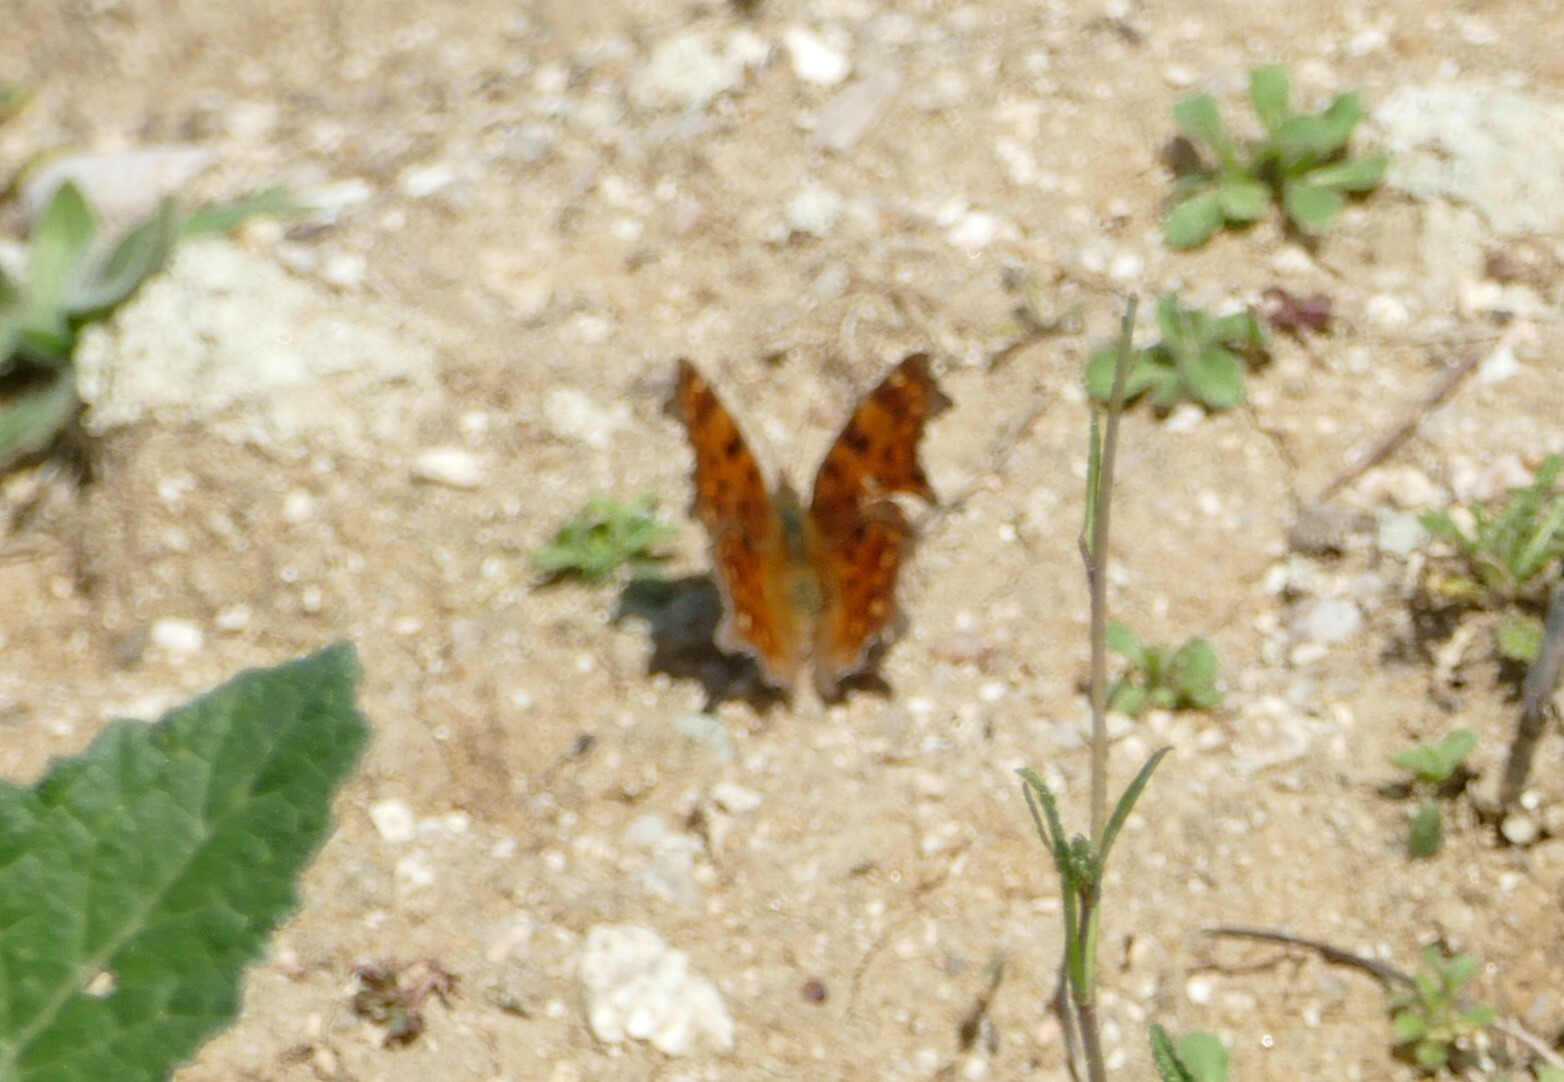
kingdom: Animalia
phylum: Arthropoda
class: Insecta
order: Lepidoptera
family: Nymphalidae
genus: Polygonia
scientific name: Polygonia c-album
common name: Comma
